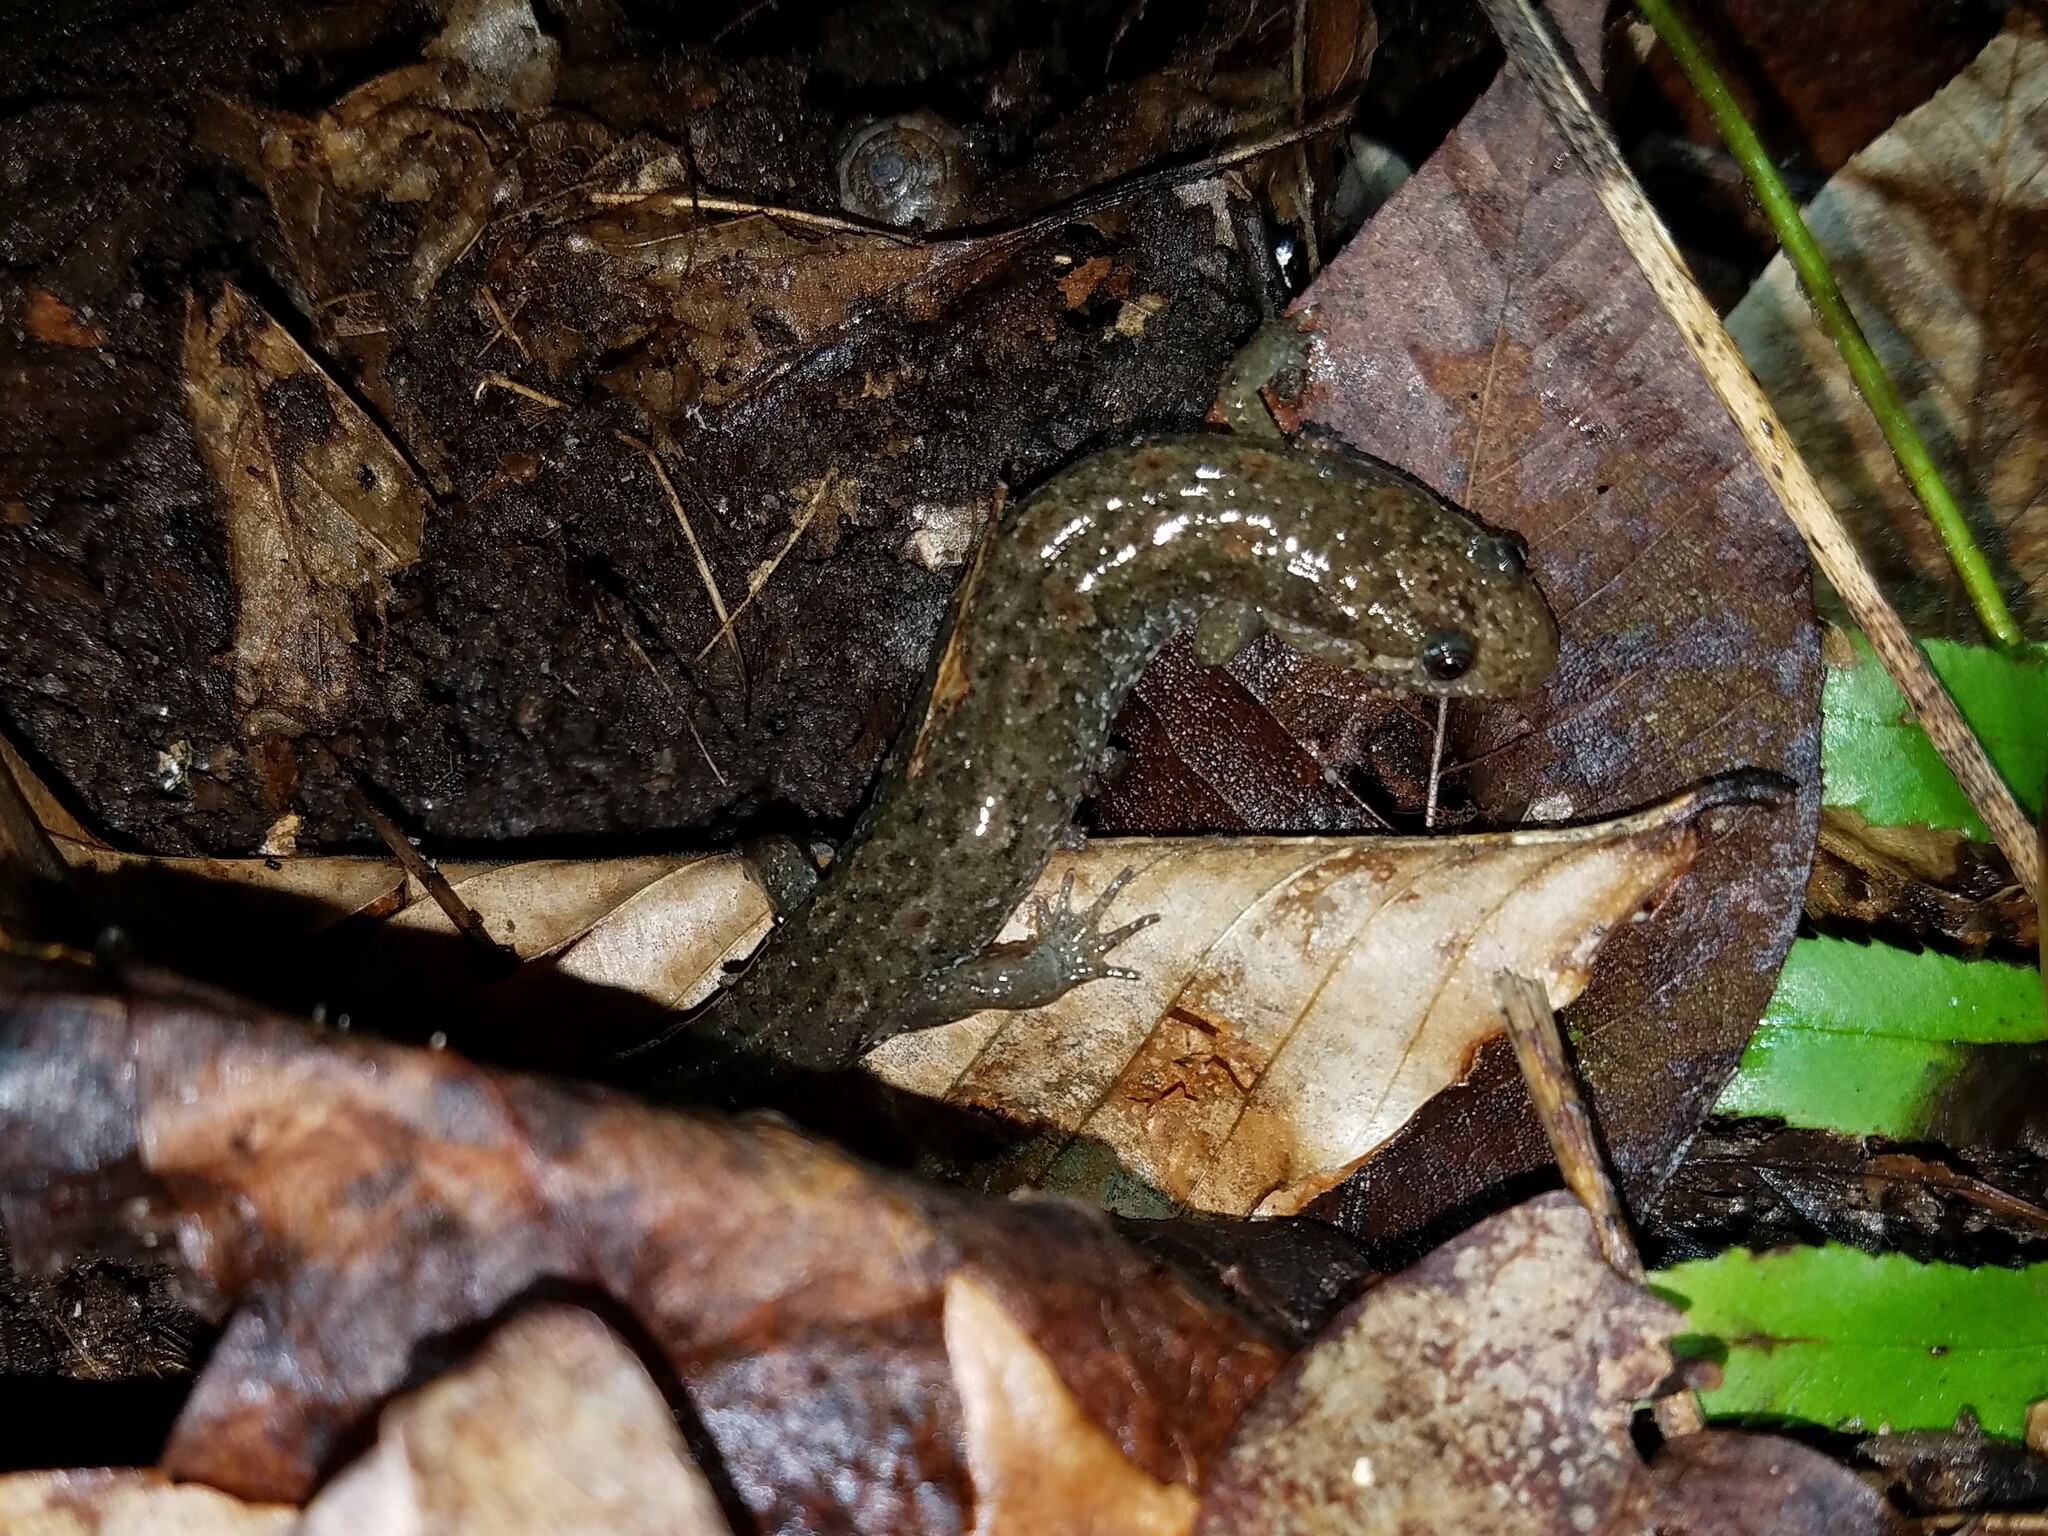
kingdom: Animalia
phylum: Chordata
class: Amphibia
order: Caudata
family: Plethodontidae
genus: Desmognathus
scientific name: Desmognathus
